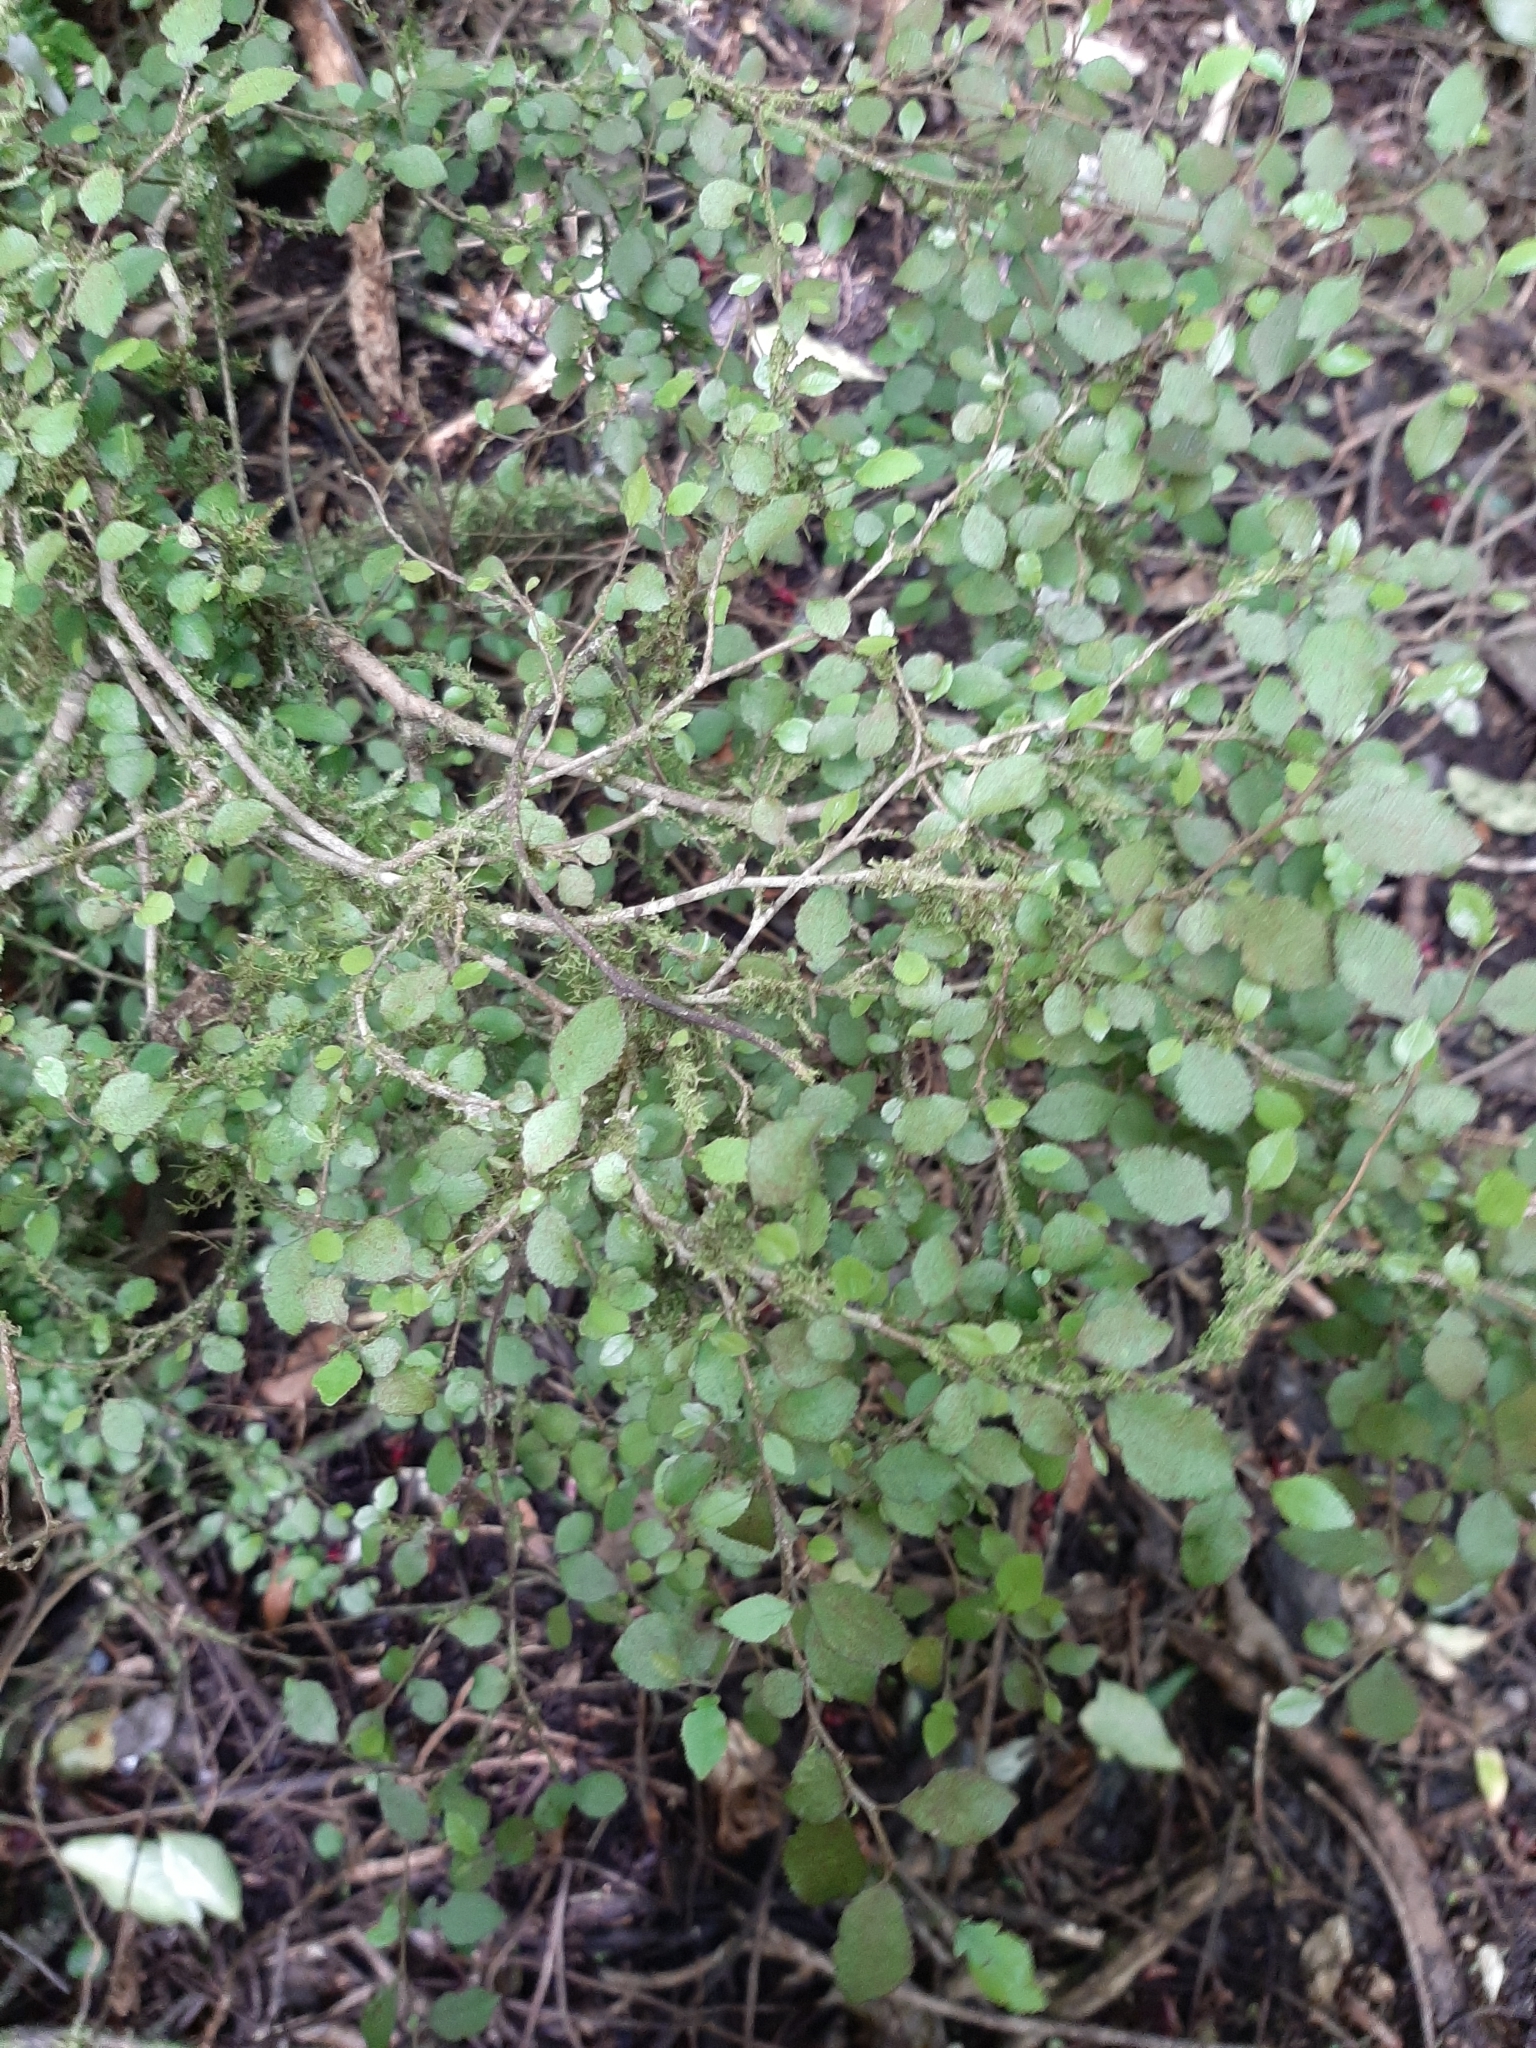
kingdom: Plantae
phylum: Tracheophyta
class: Magnoliopsida
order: Rosales
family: Moraceae
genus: Paratrophis
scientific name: Paratrophis microphylla
